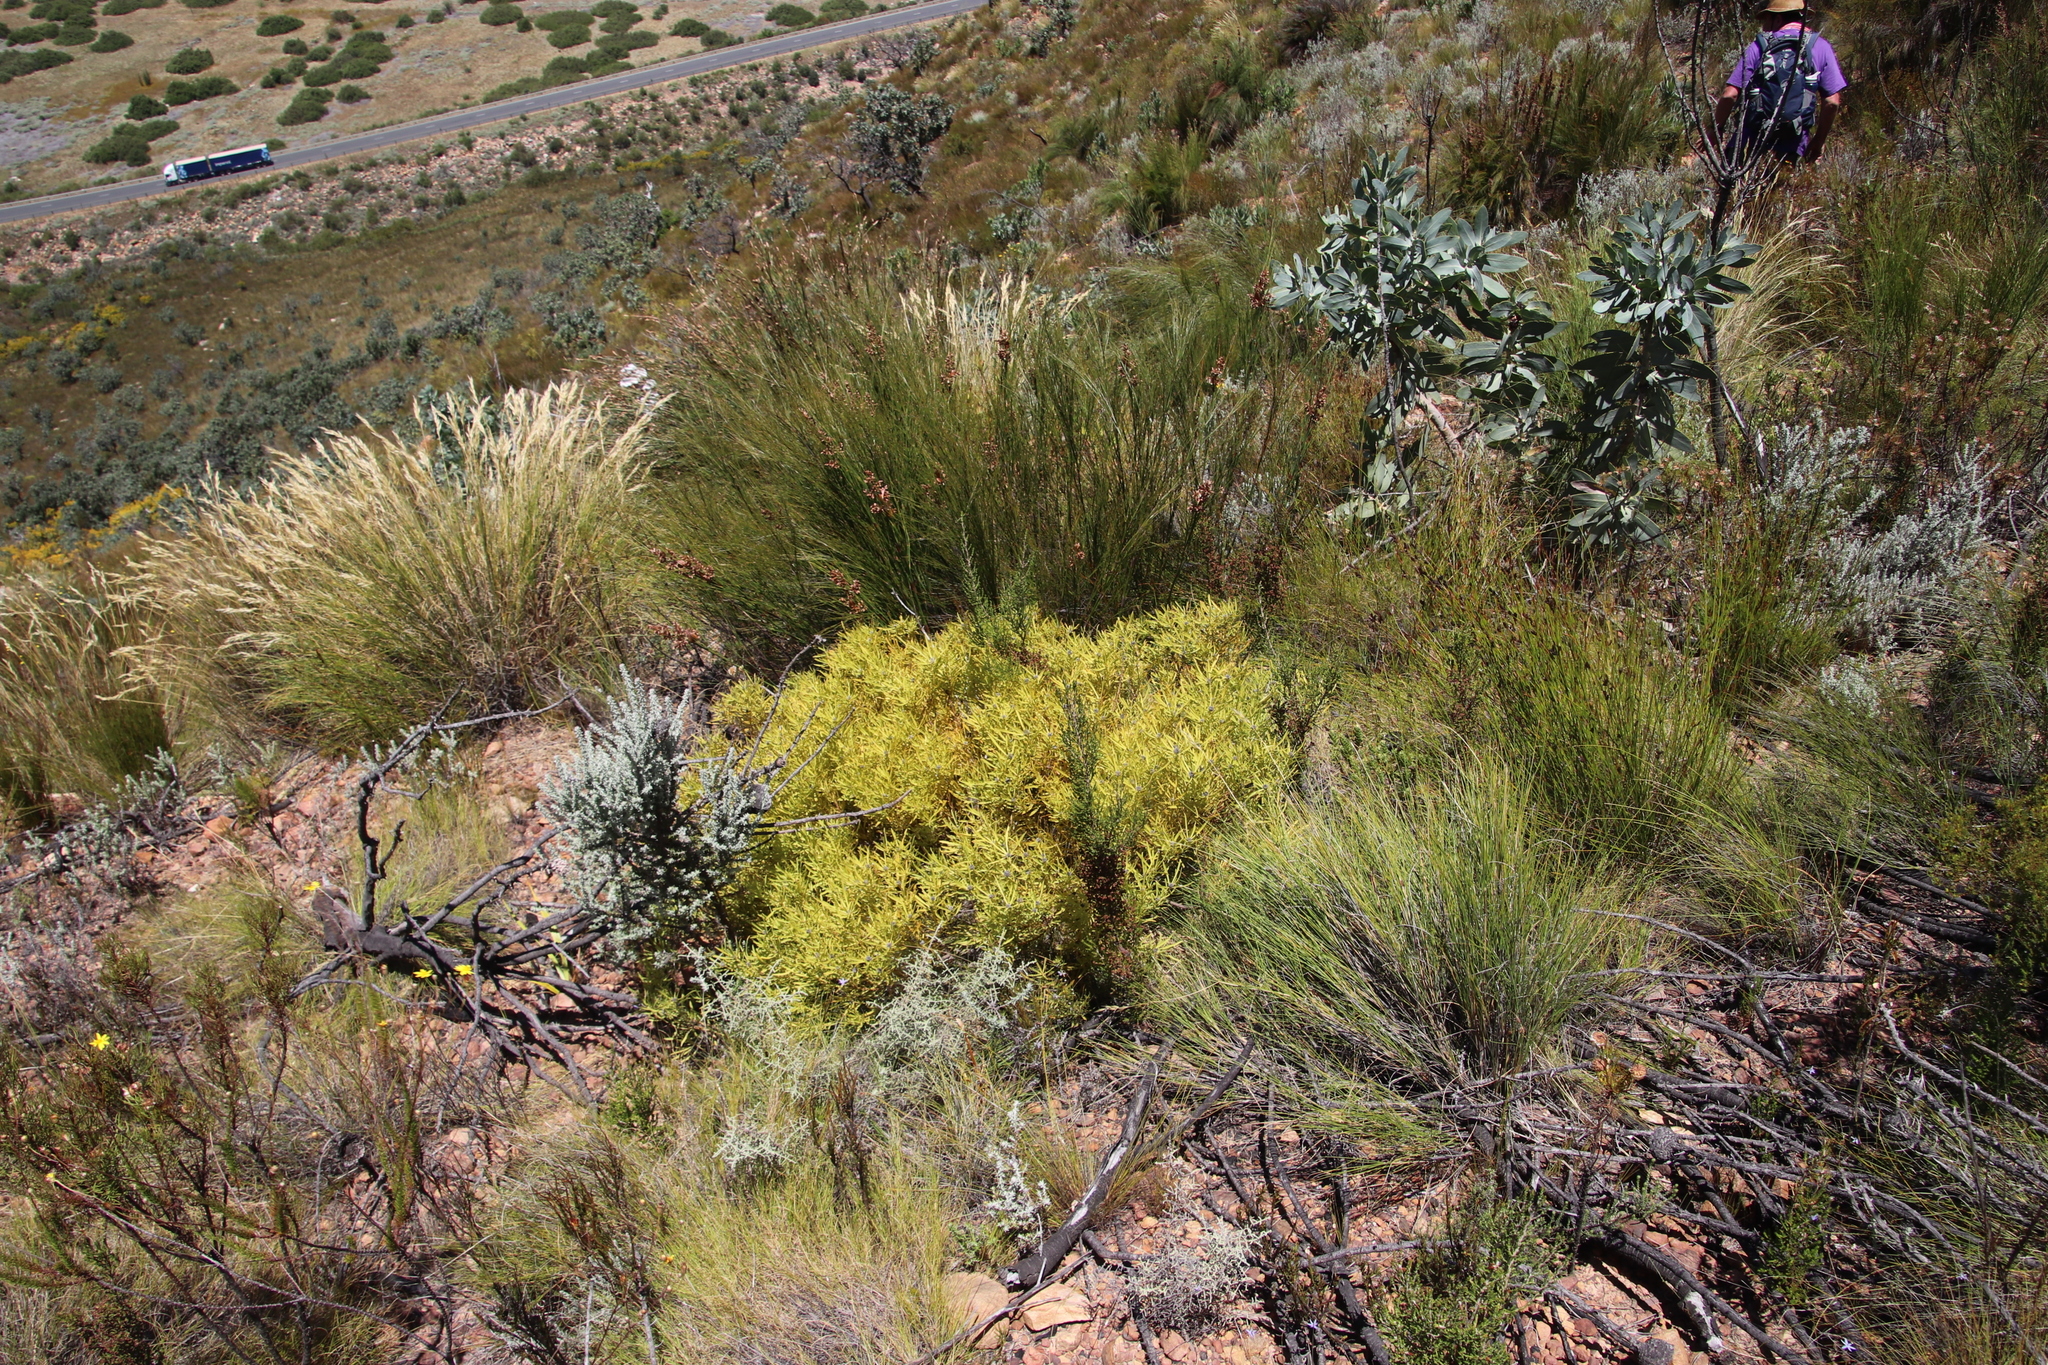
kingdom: Plantae
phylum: Tracheophyta
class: Magnoliopsida
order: Proteales
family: Proteaceae
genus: Leucadendron
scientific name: Leucadendron salignum
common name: Common sunshine conebush
